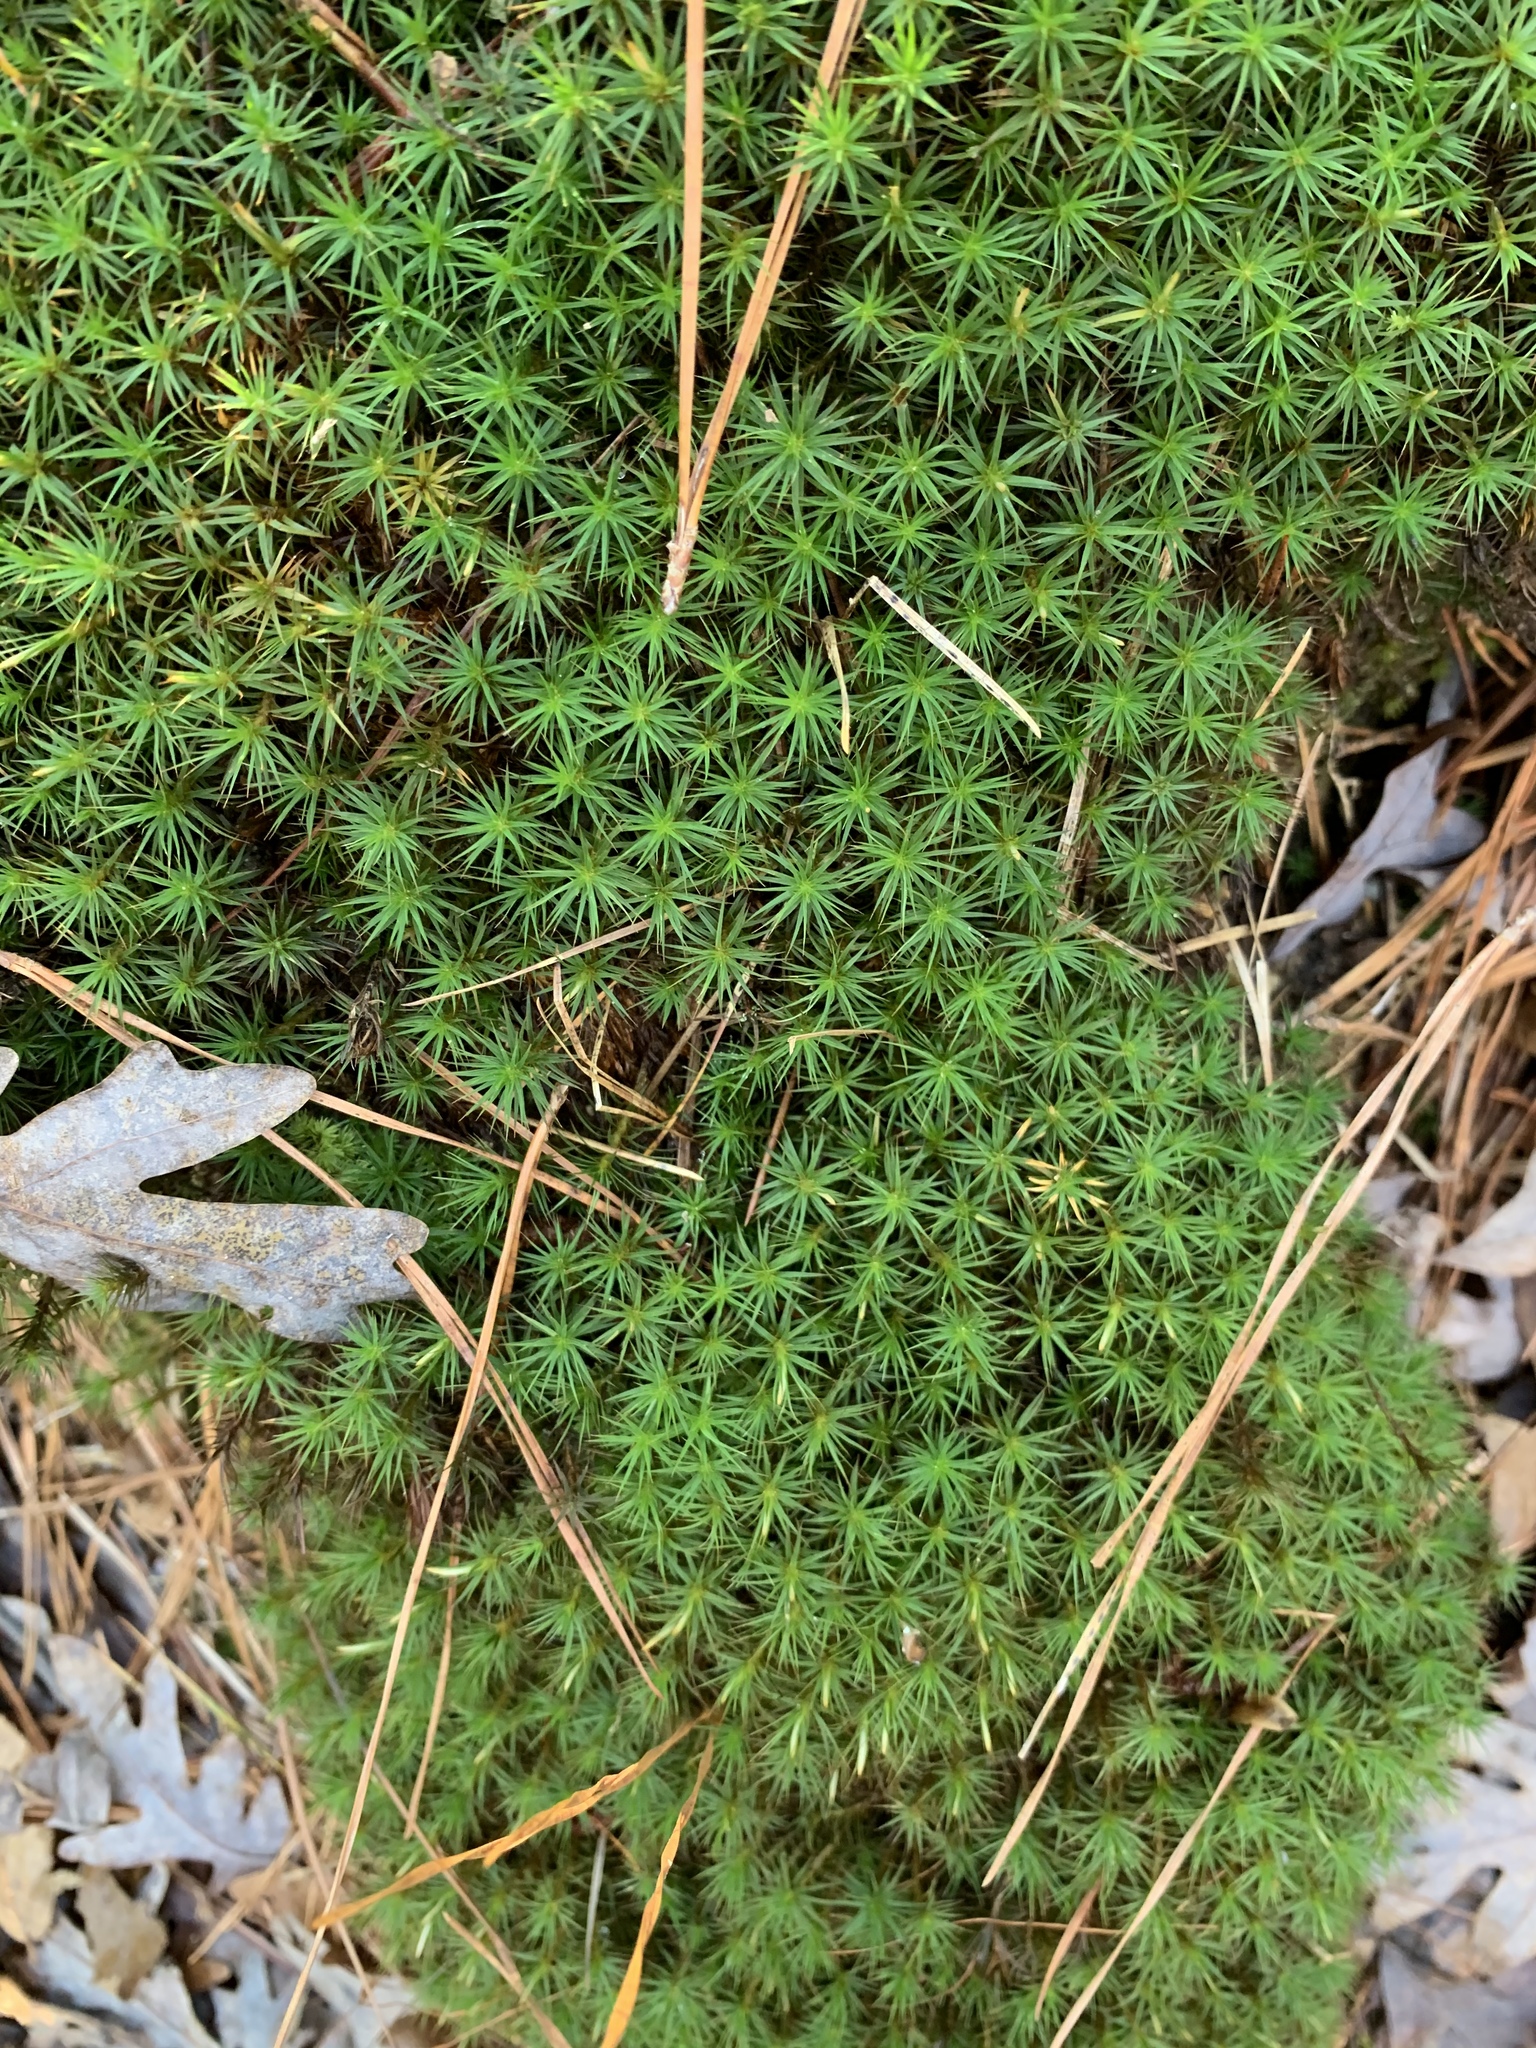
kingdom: Plantae
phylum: Bryophyta
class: Polytrichopsida
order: Polytrichales
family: Polytrichaceae
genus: Polytrichum
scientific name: Polytrichum commune
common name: Common haircap
